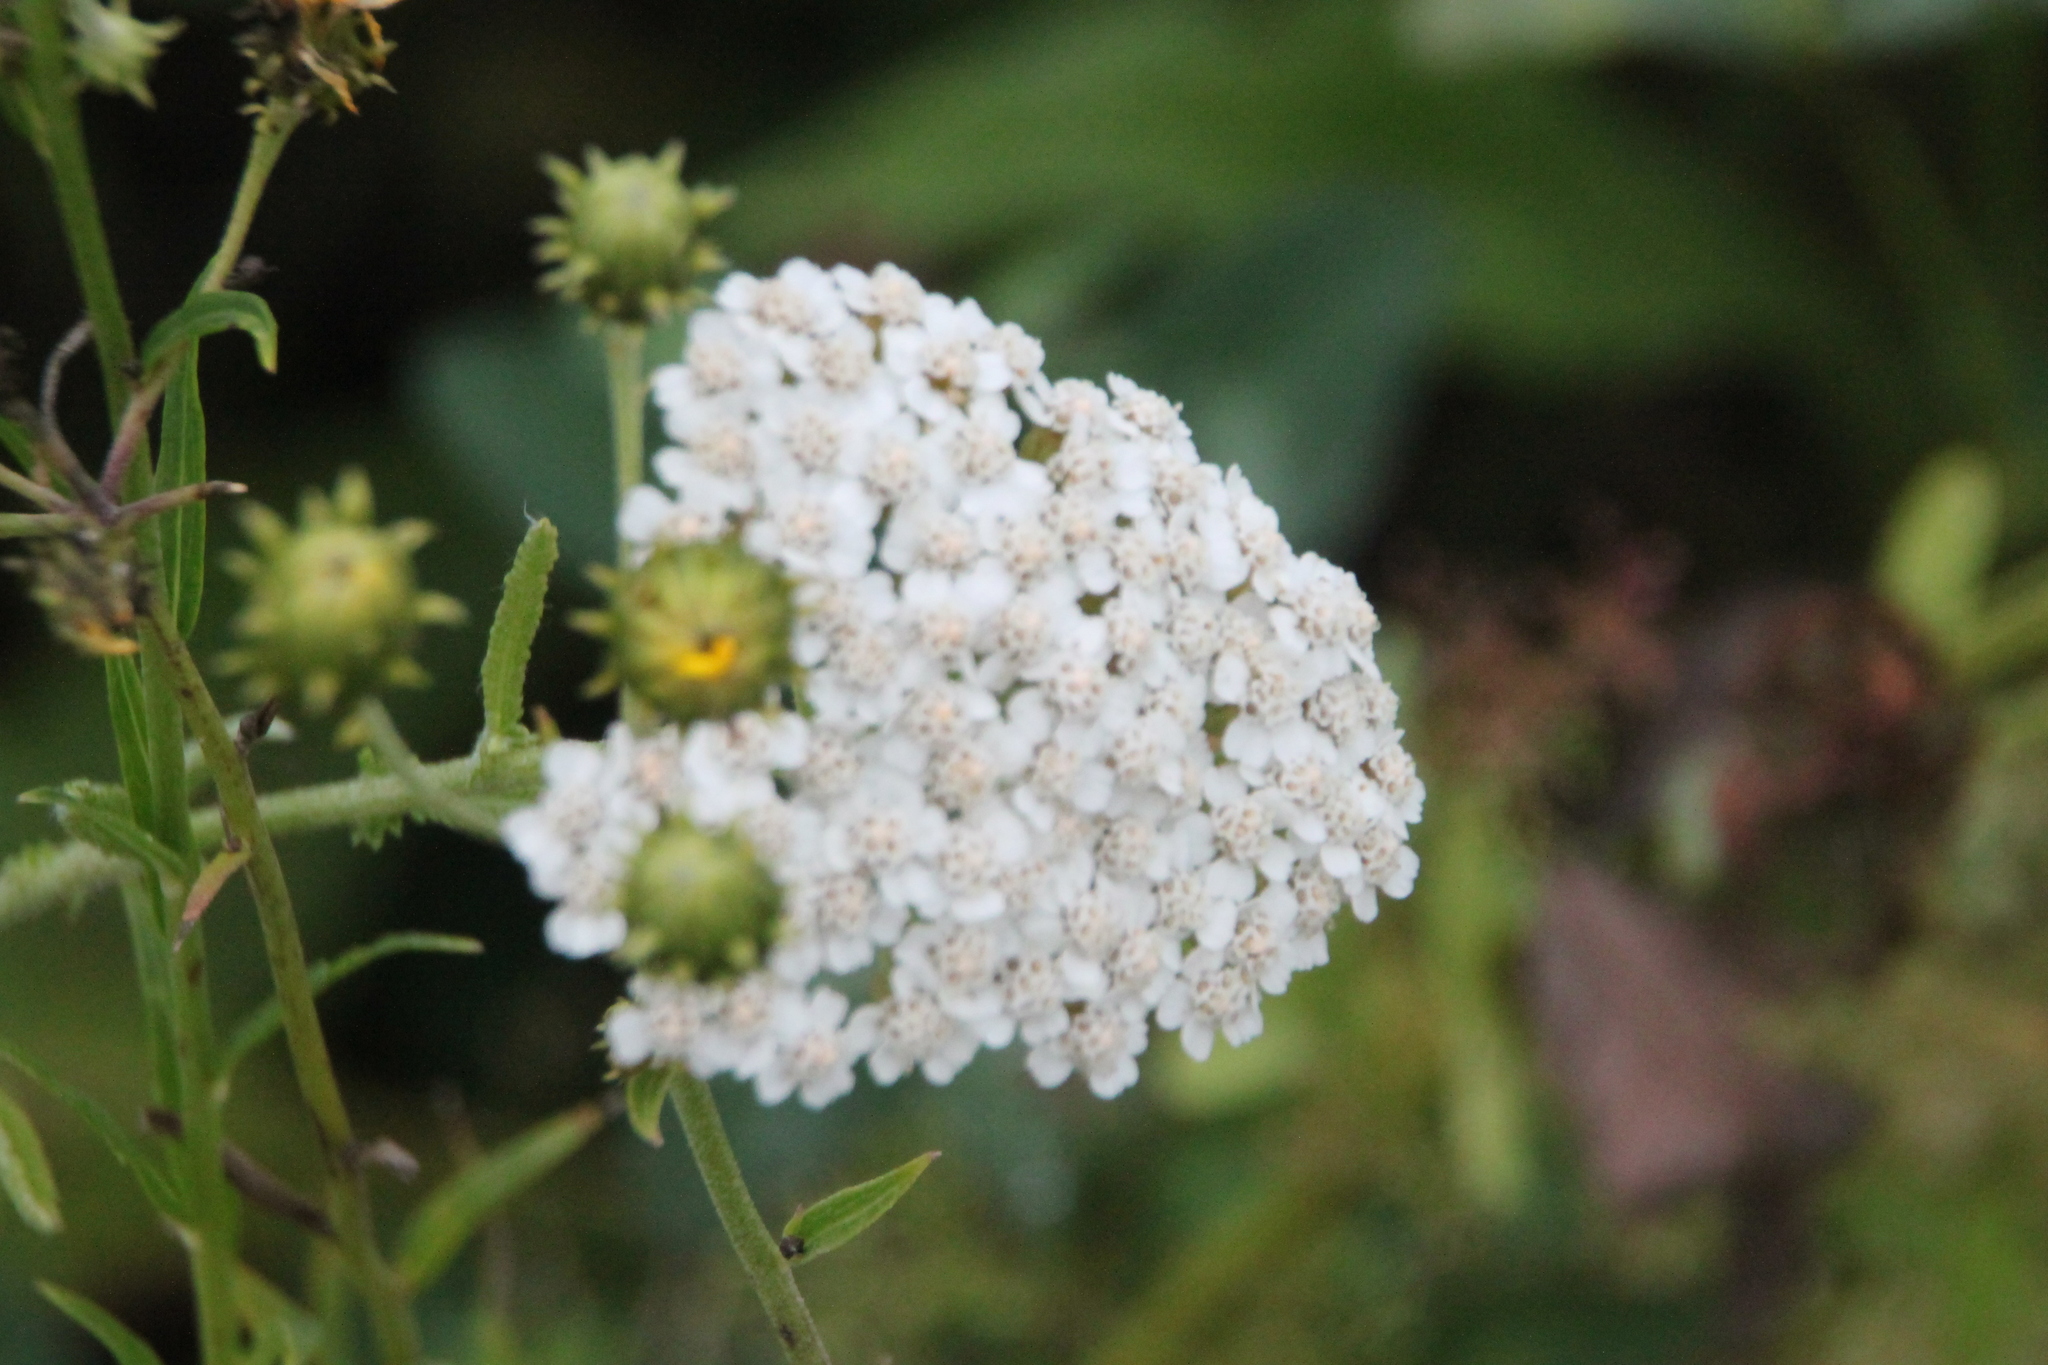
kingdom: Plantae
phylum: Tracheophyta
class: Magnoliopsida
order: Asterales
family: Asteraceae
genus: Achillea
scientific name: Achillea millefolium
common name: Yarrow
